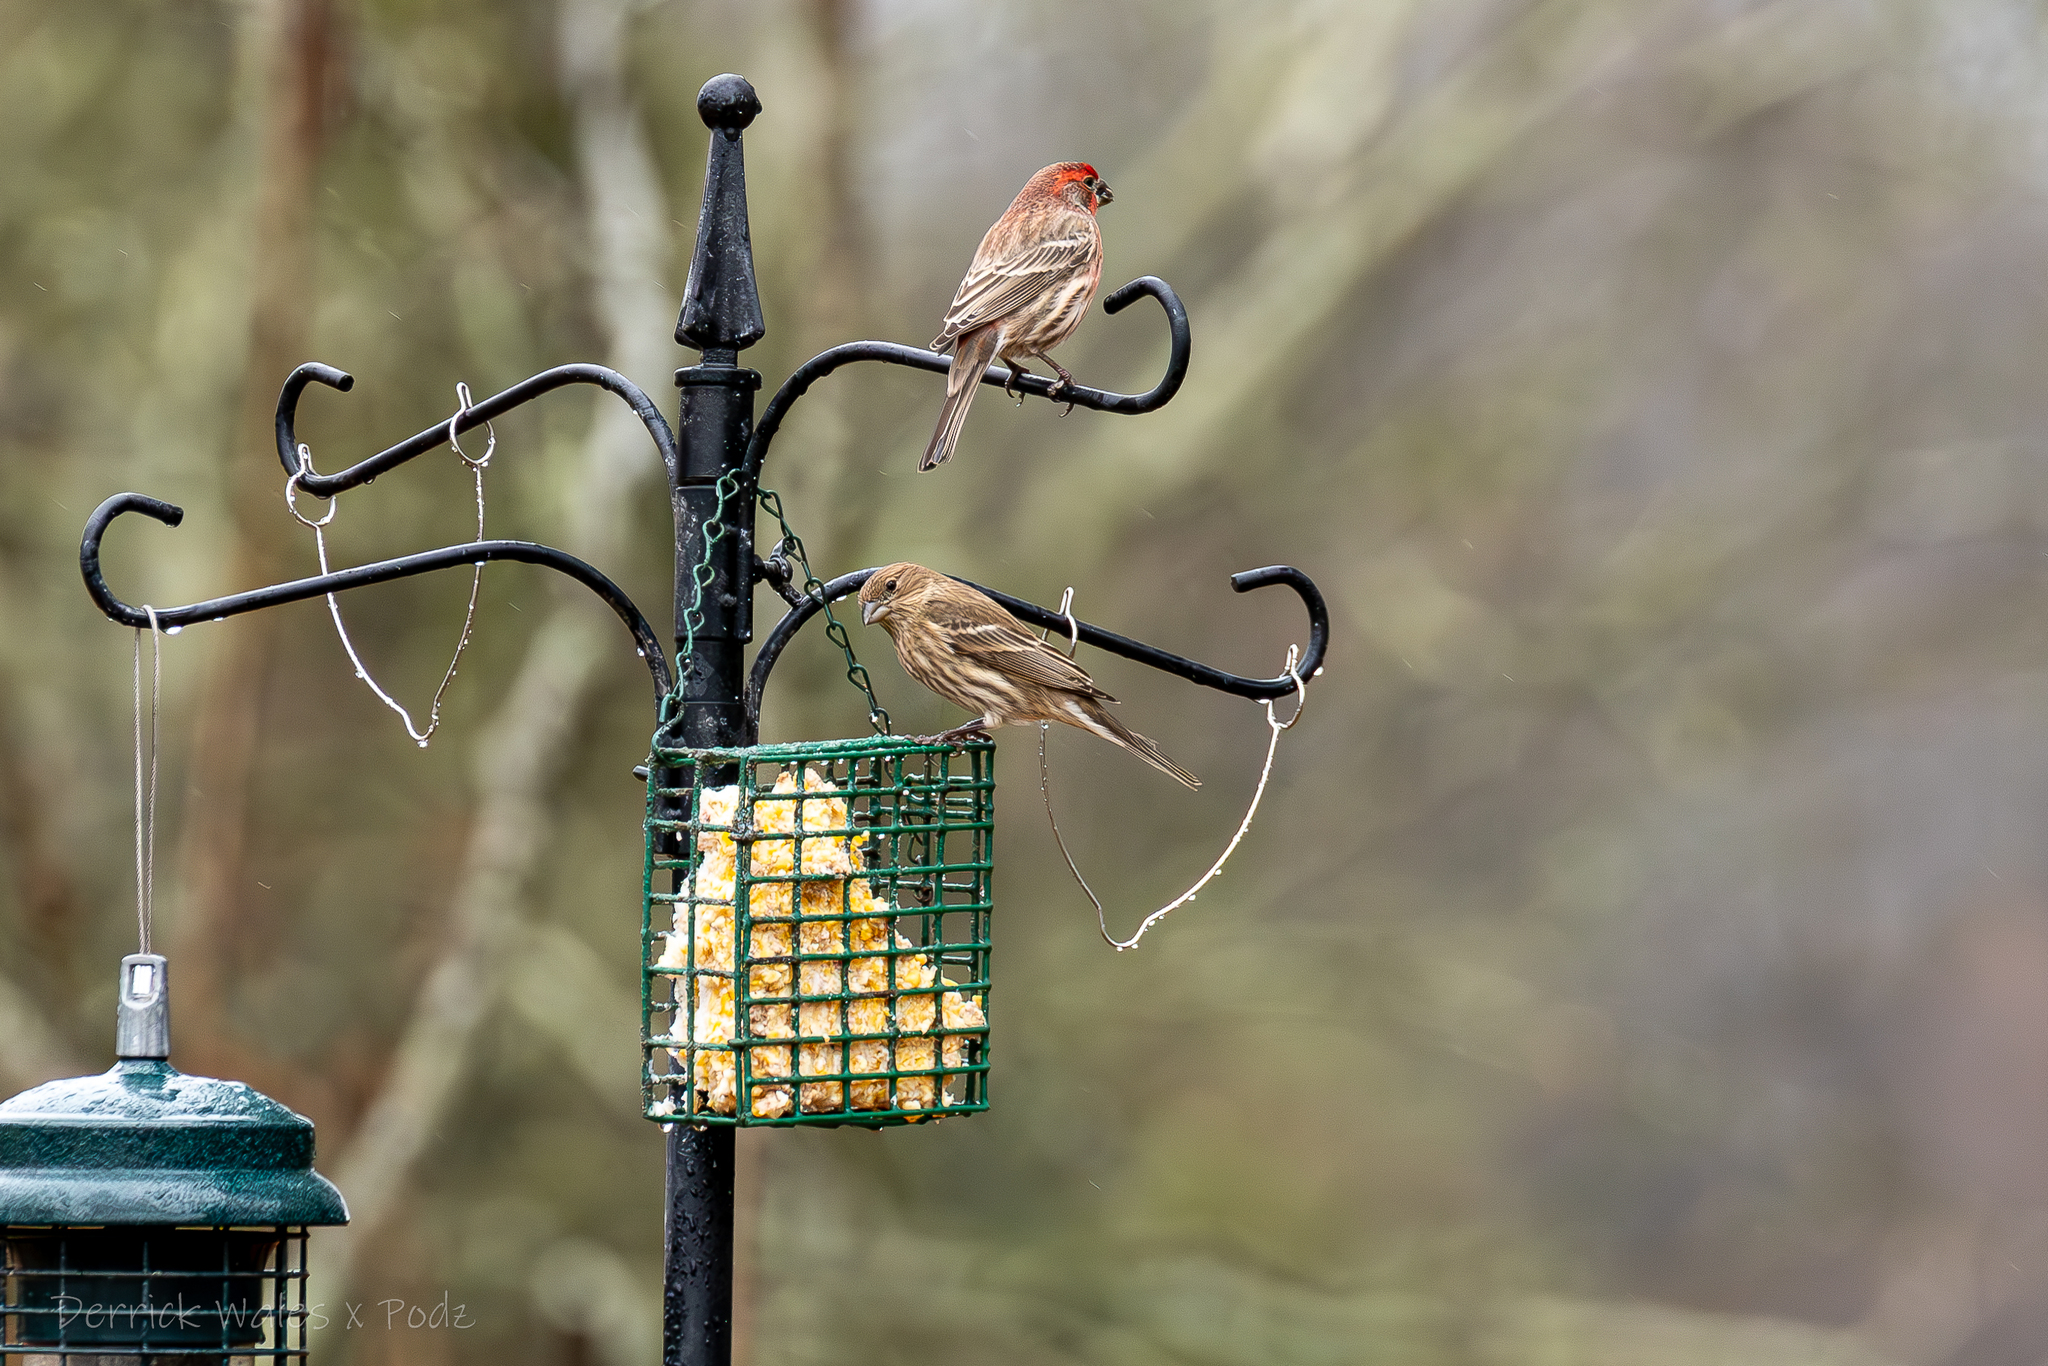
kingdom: Animalia
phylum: Chordata
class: Aves
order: Passeriformes
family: Fringillidae
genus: Haemorhous
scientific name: Haemorhous mexicanus
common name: House finch
